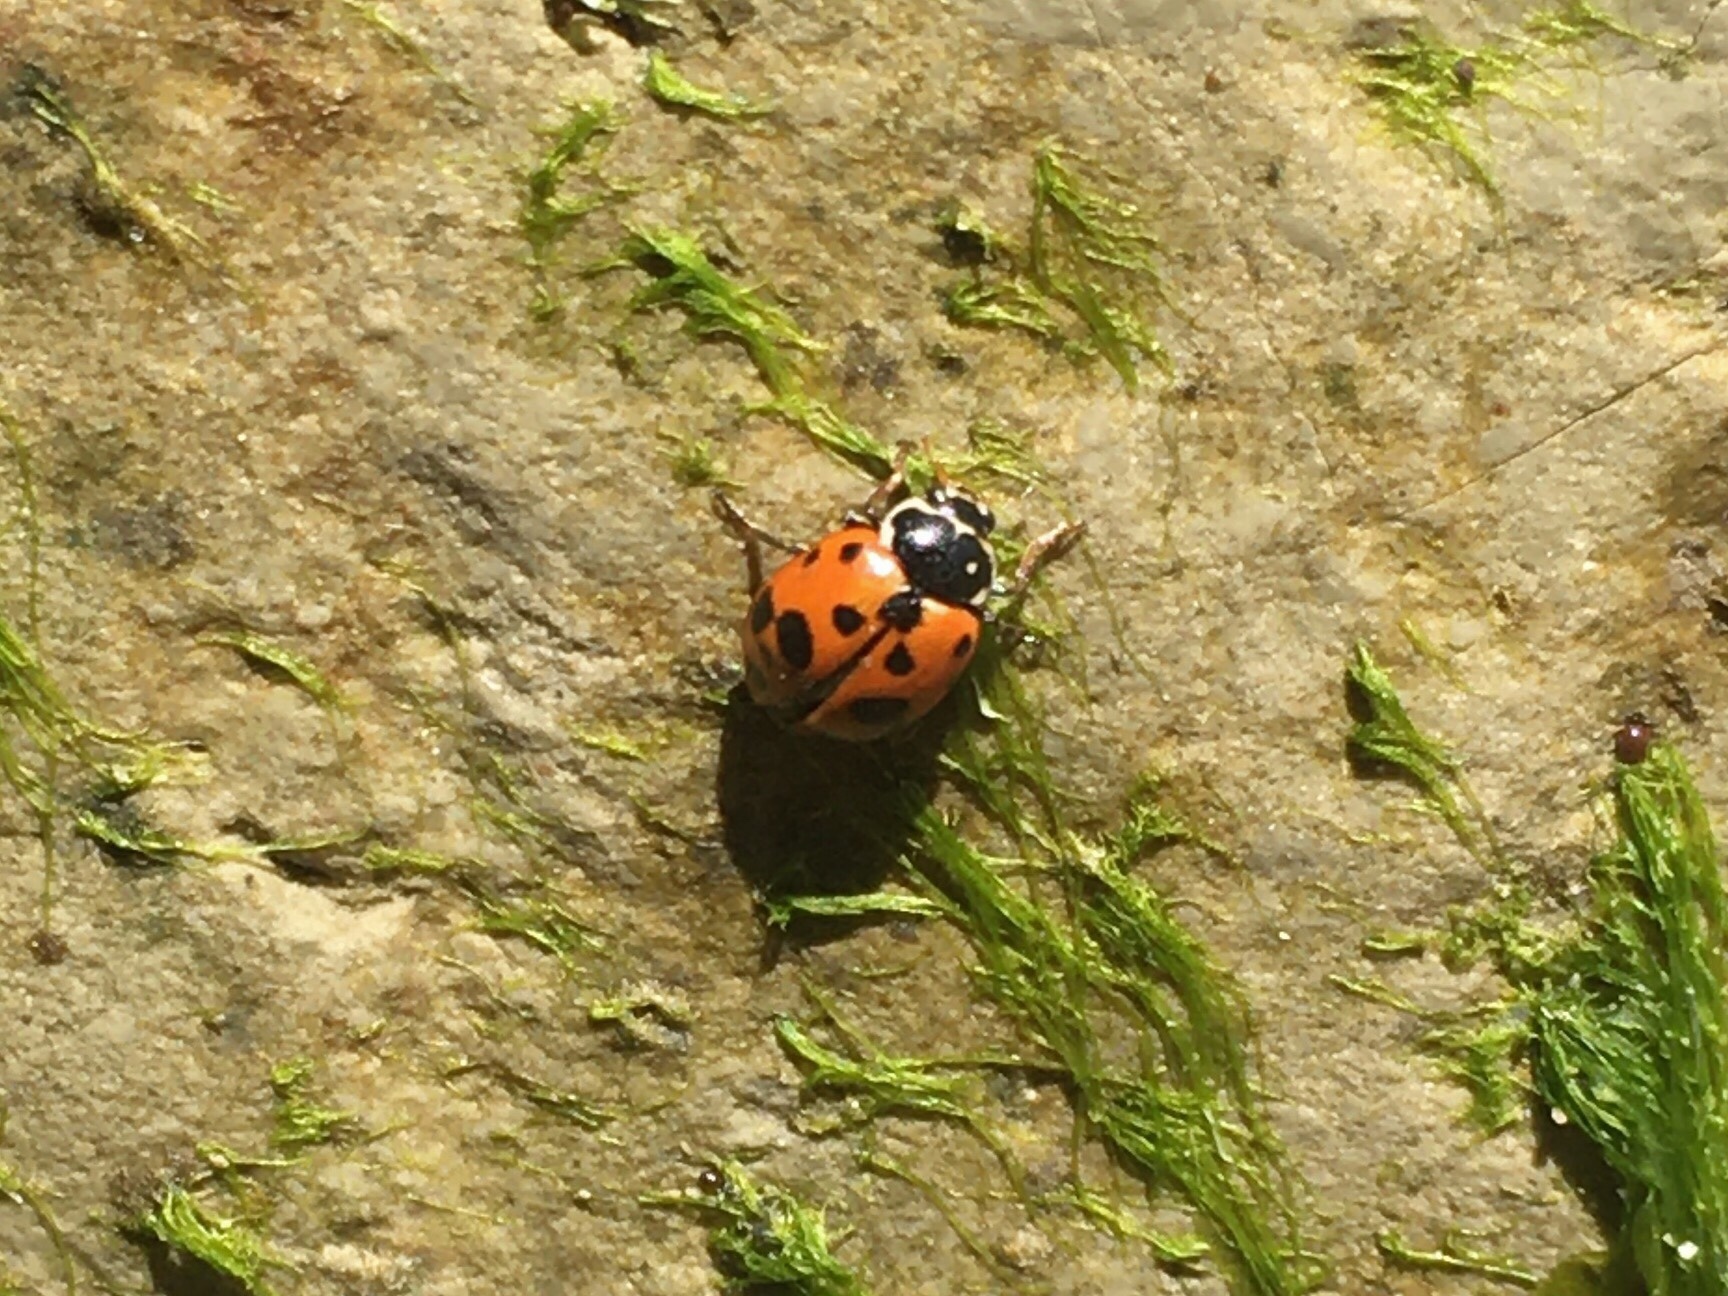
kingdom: Animalia
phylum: Arthropoda
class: Insecta
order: Coleoptera
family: Coccinellidae
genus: Hippodamia
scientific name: Hippodamia variegata
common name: Ladybird beetle
